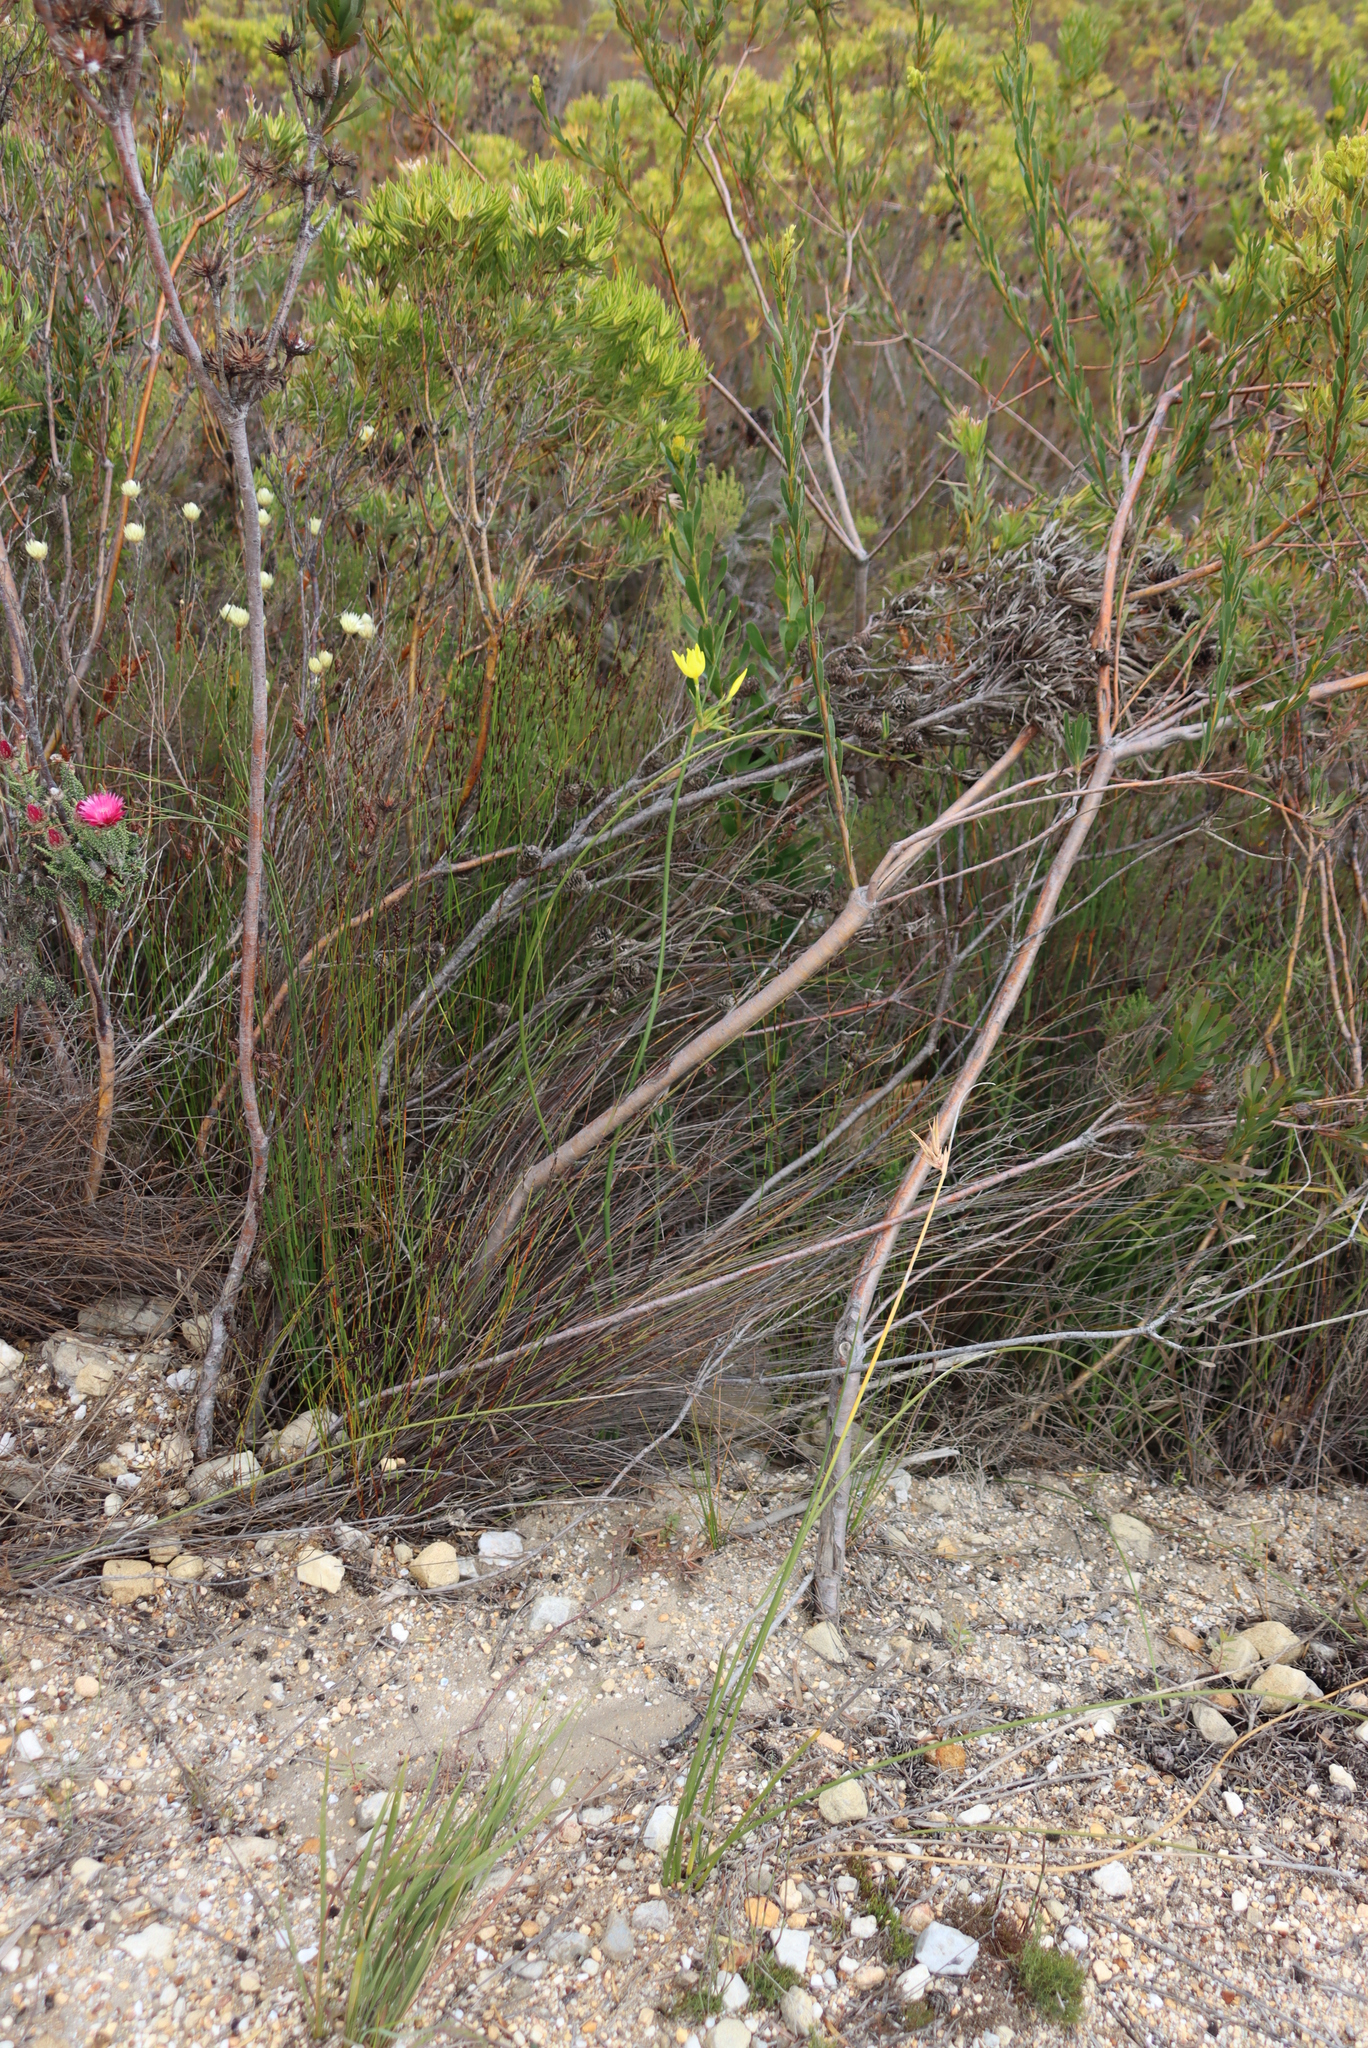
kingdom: Plantae
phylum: Tracheophyta
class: Liliopsida
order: Asparagales
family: Iridaceae
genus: Bobartia
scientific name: Bobartia longicyma
